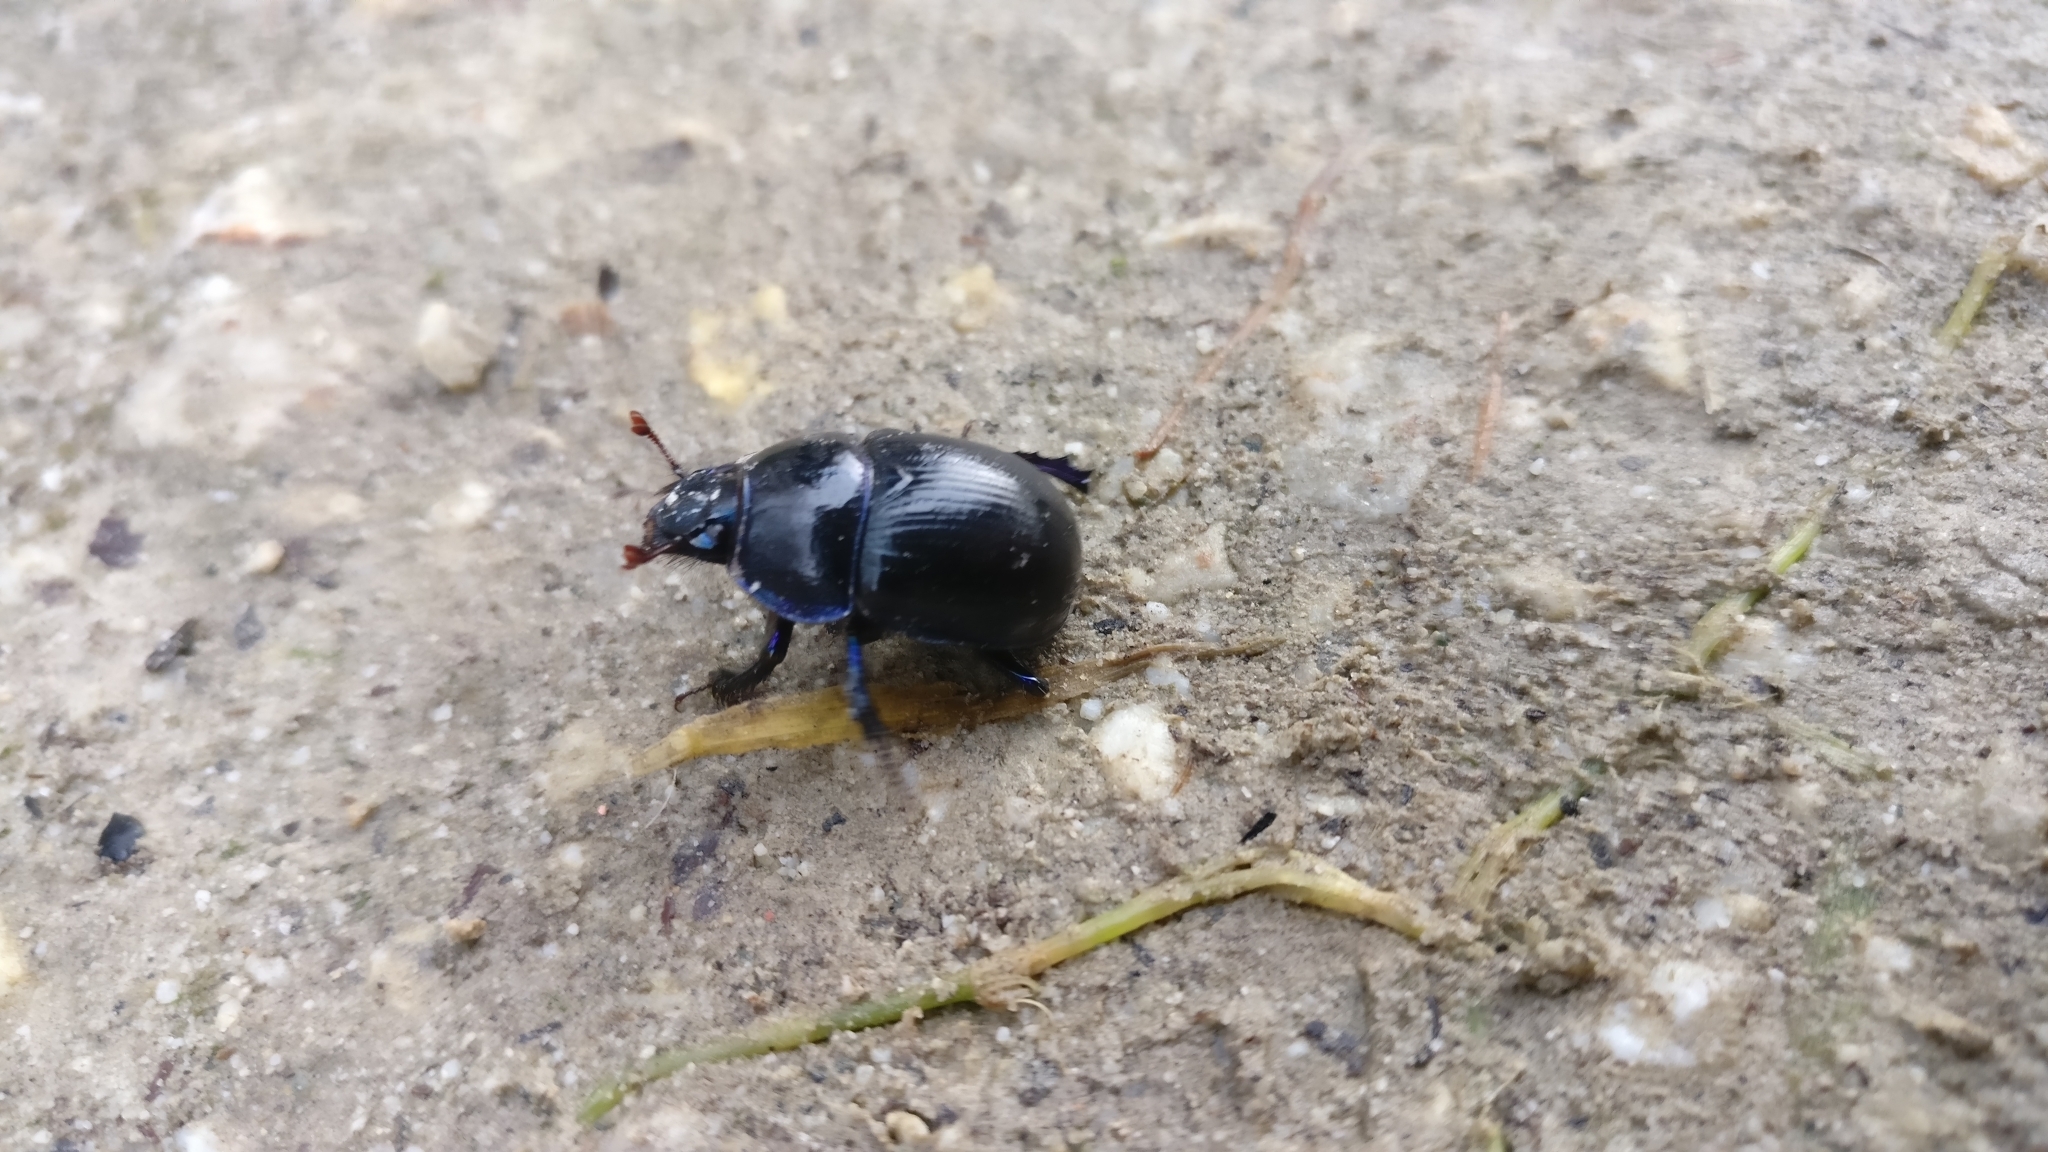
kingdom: Animalia
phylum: Arthropoda
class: Insecta
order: Coleoptera
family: Geotrupidae
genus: Anoplotrupes
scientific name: Anoplotrupes stercorosus
